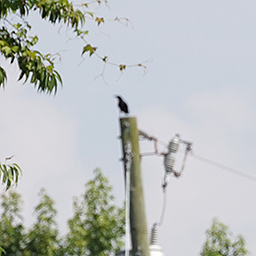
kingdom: Animalia
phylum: Chordata
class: Aves
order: Passeriformes
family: Corvidae
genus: Corvus
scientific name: Corvus ossifragus
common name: Fish crow
